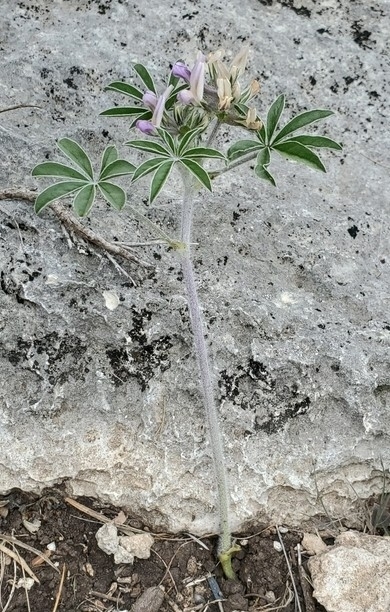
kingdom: Plantae
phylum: Tracheophyta
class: Magnoliopsida
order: Fabales
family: Fabaceae
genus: Pediomelum
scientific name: Pediomelum latestipulatum
